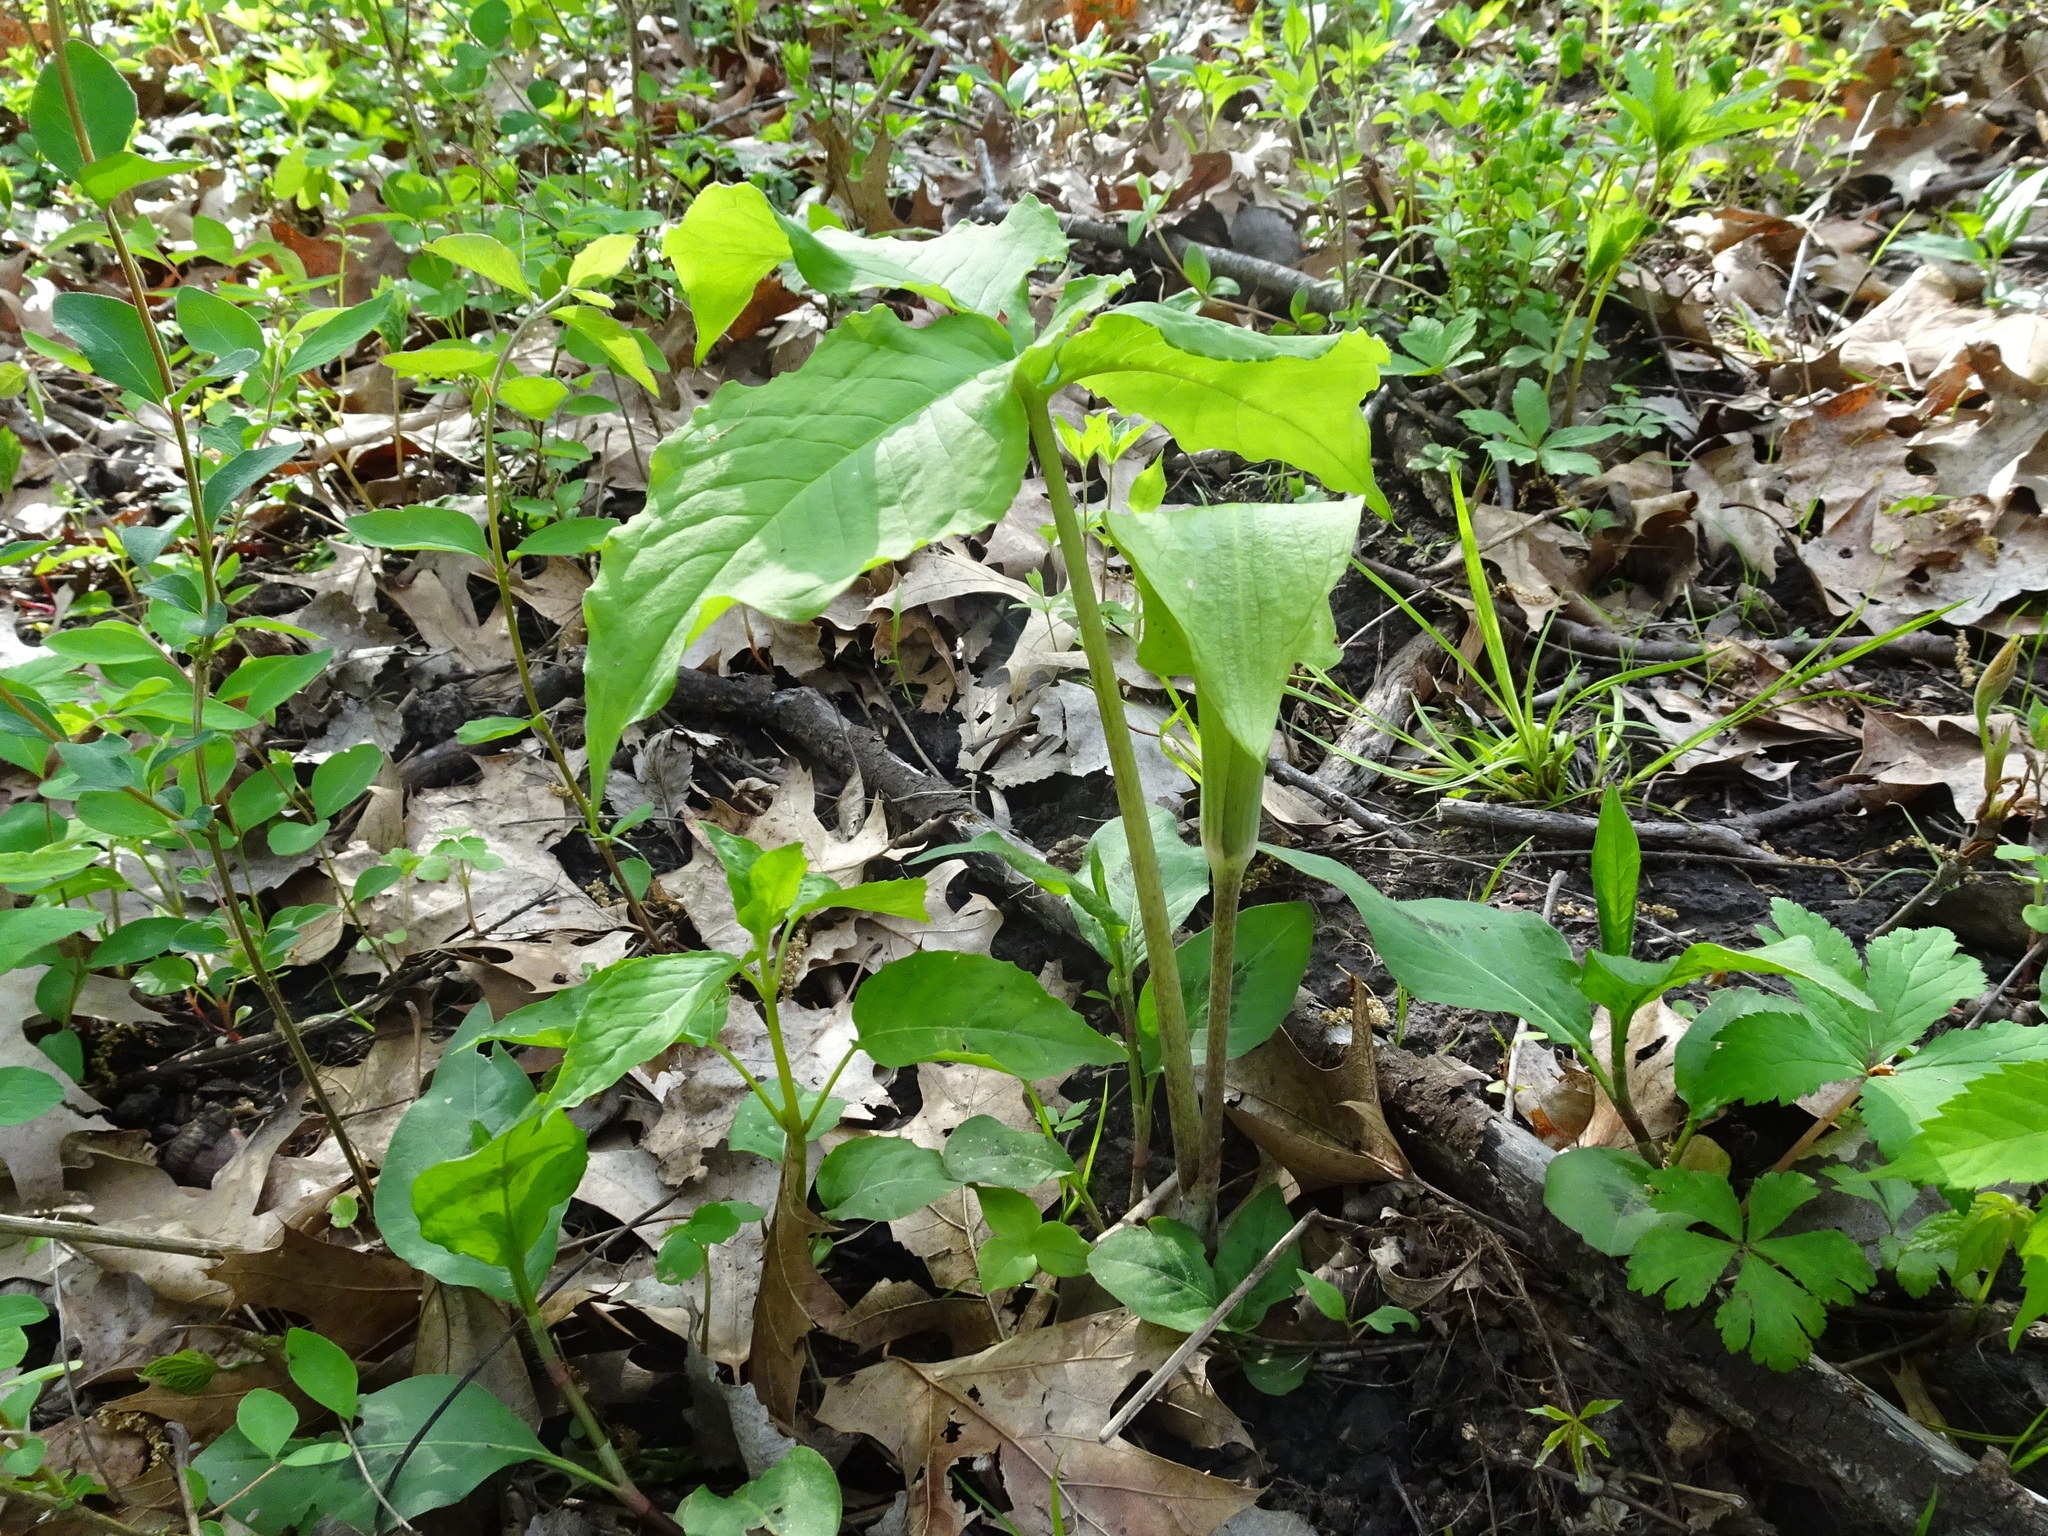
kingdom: Plantae
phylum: Tracheophyta
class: Liliopsida
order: Alismatales
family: Araceae
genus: Arisaema
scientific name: Arisaema triphyllum
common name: Jack-in-the-pulpit
